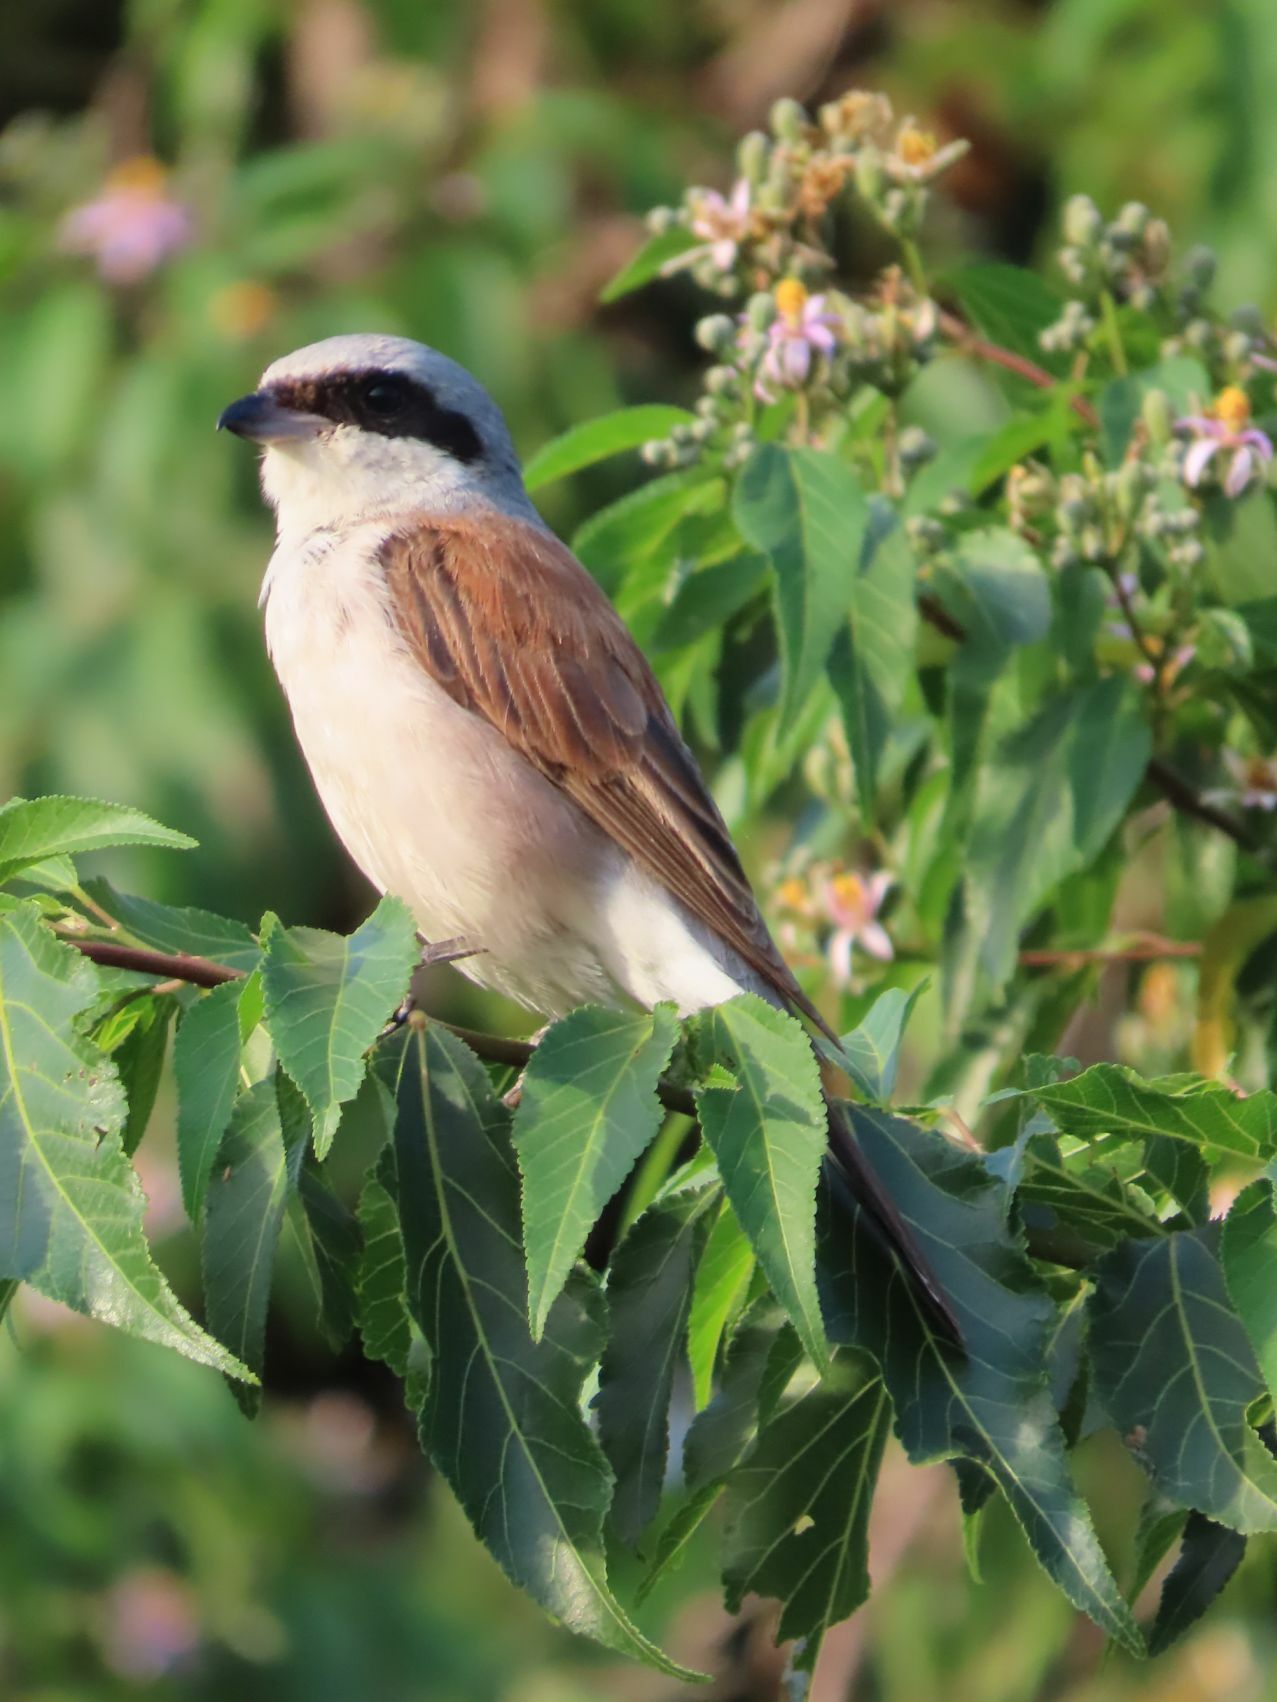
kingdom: Animalia
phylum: Chordata
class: Aves
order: Passeriformes
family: Laniidae
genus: Lanius
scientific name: Lanius collurio
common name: Red-backed shrike
